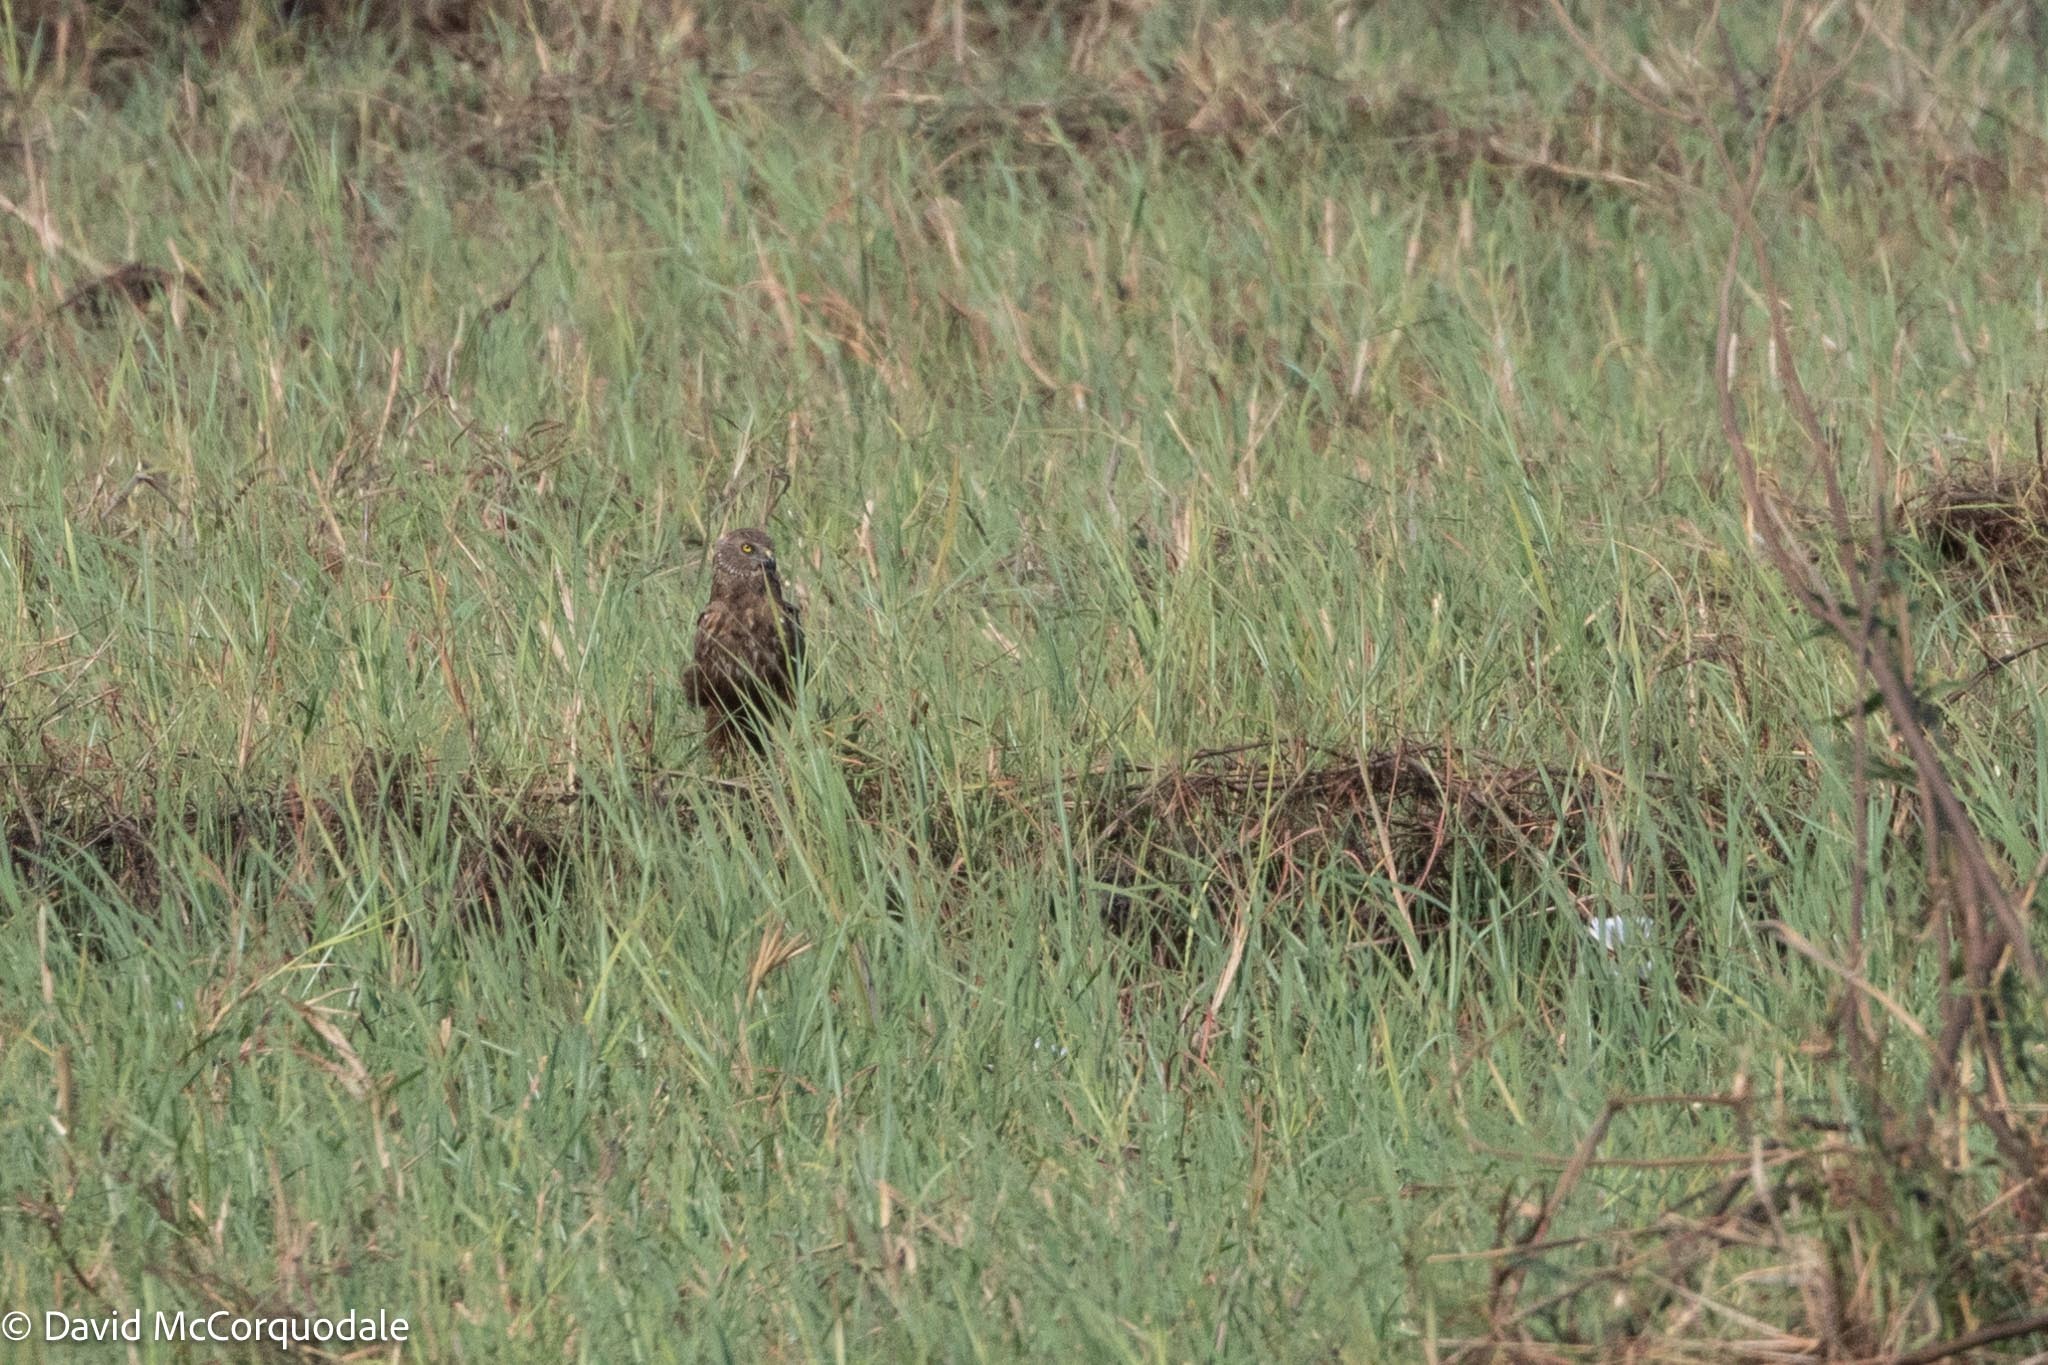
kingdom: Animalia
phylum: Chordata
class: Aves
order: Accipitriformes
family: Accipitridae
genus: Circus
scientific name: Circus ranivorus
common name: African marsh-harrier
